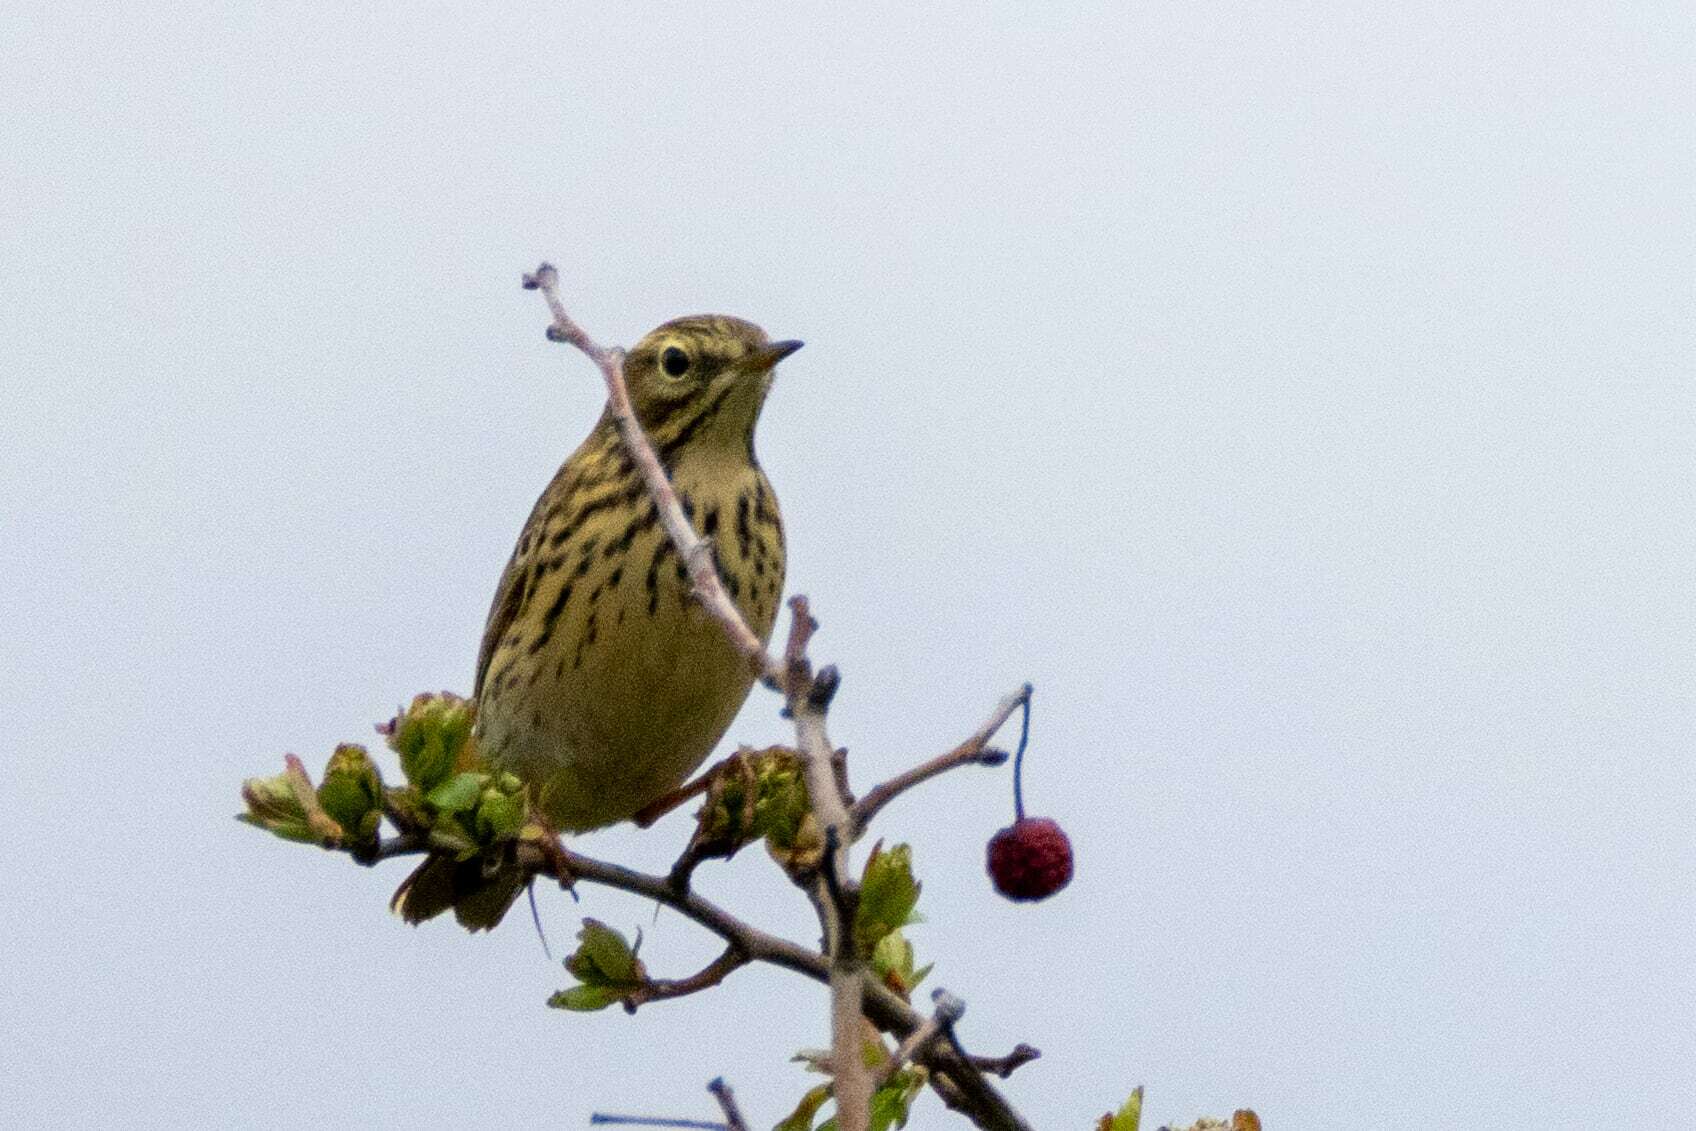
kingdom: Animalia
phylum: Chordata
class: Aves
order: Passeriformes
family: Motacillidae
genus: Anthus
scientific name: Anthus pratensis
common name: Meadow pipit
